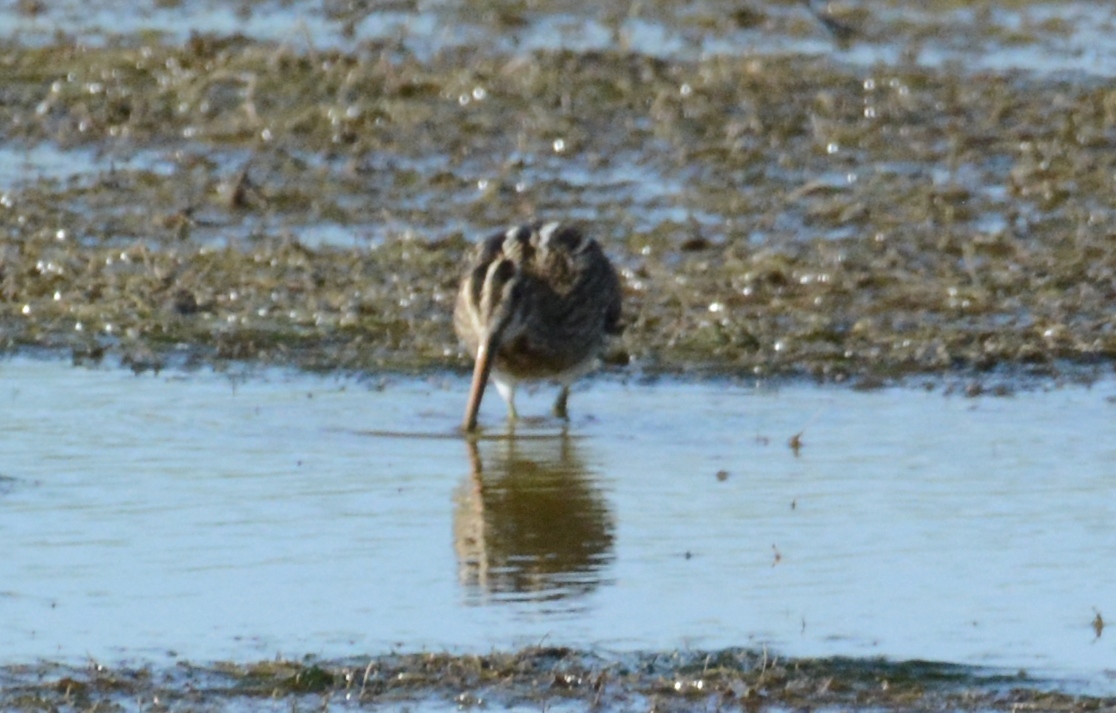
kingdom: Animalia
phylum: Chordata
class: Aves
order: Charadriiformes
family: Scolopacidae
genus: Gallinago
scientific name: Gallinago gallinago
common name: Common snipe
